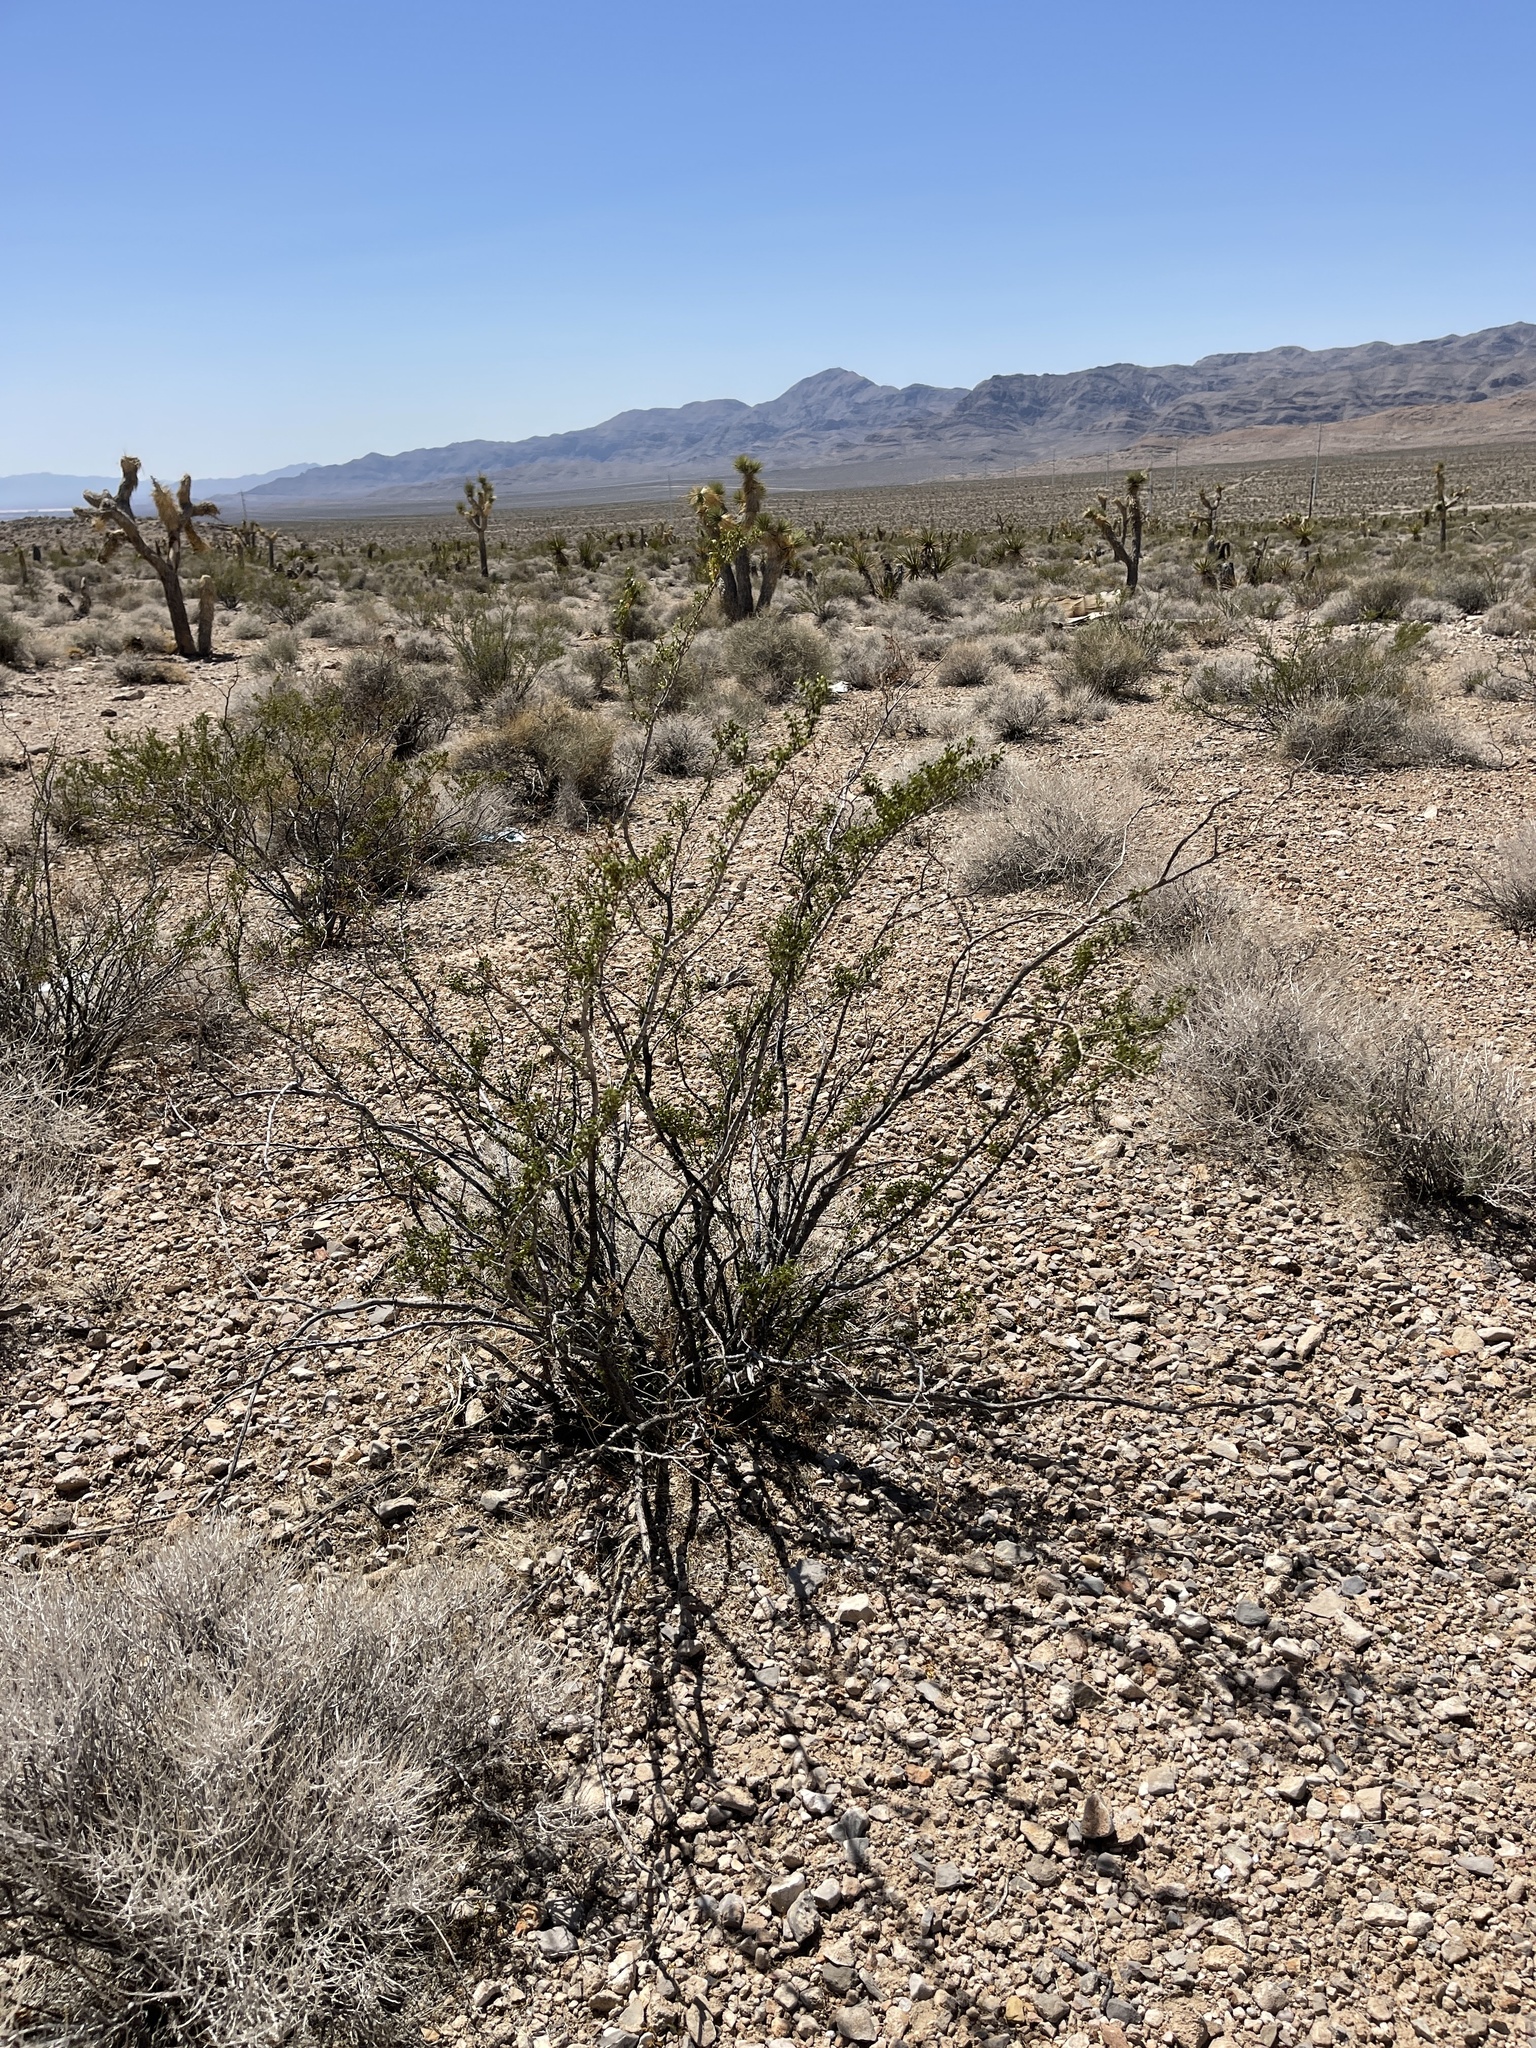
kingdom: Plantae
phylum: Tracheophyta
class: Magnoliopsida
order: Zygophyllales
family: Zygophyllaceae
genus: Larrea
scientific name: Larrea tridentata
